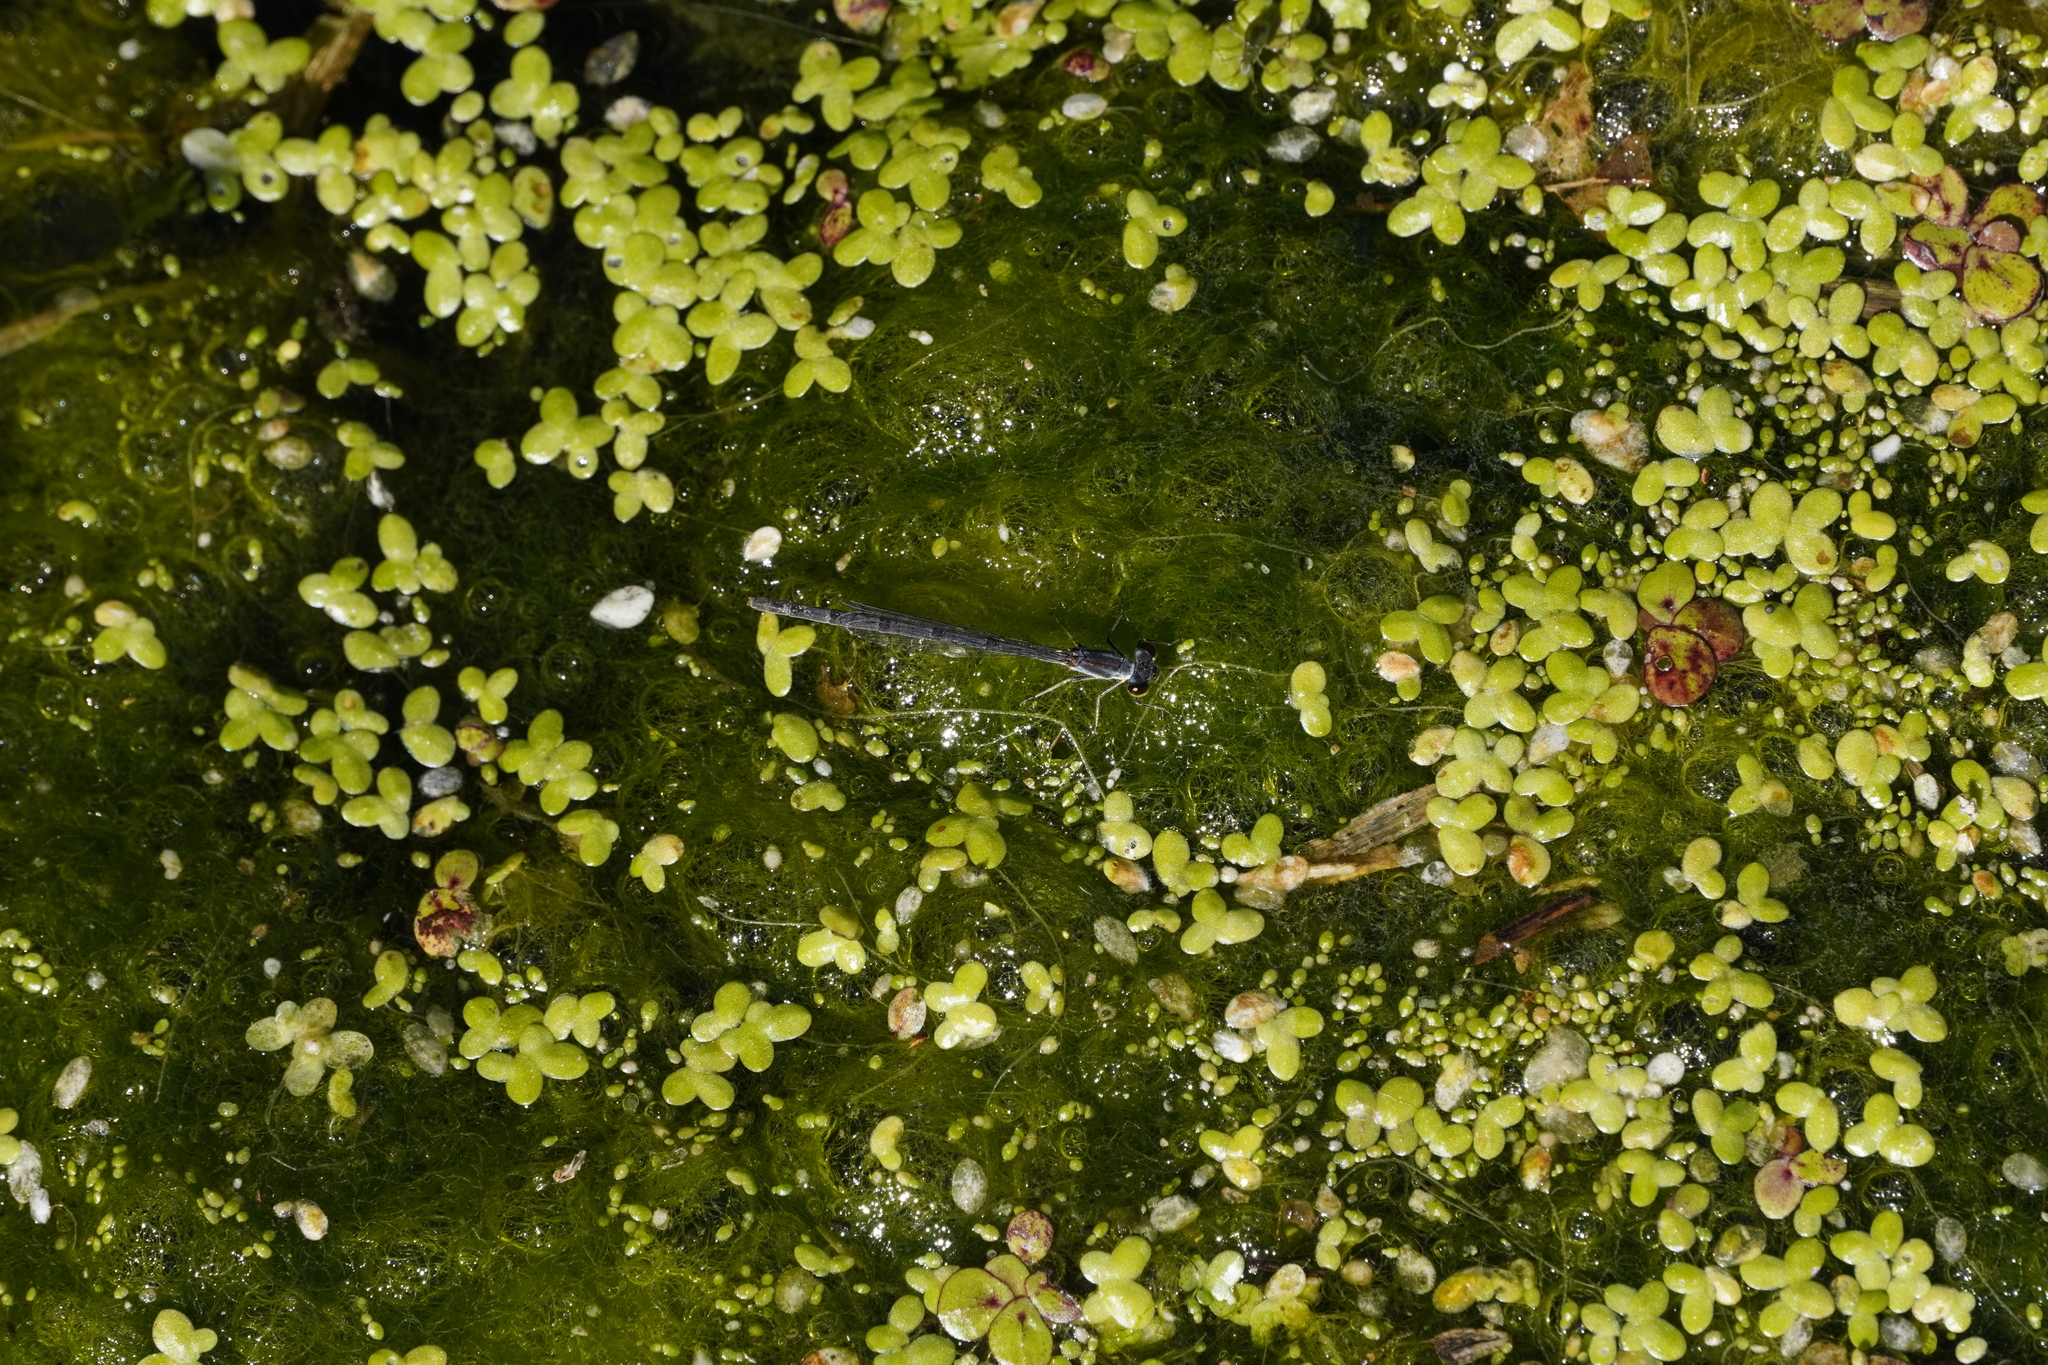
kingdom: Animalia
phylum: Arthropoda
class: Insecta
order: Odonata
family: Coenagrionidae
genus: Ischnura
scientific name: Ischnura posita
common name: Fragile forktail
